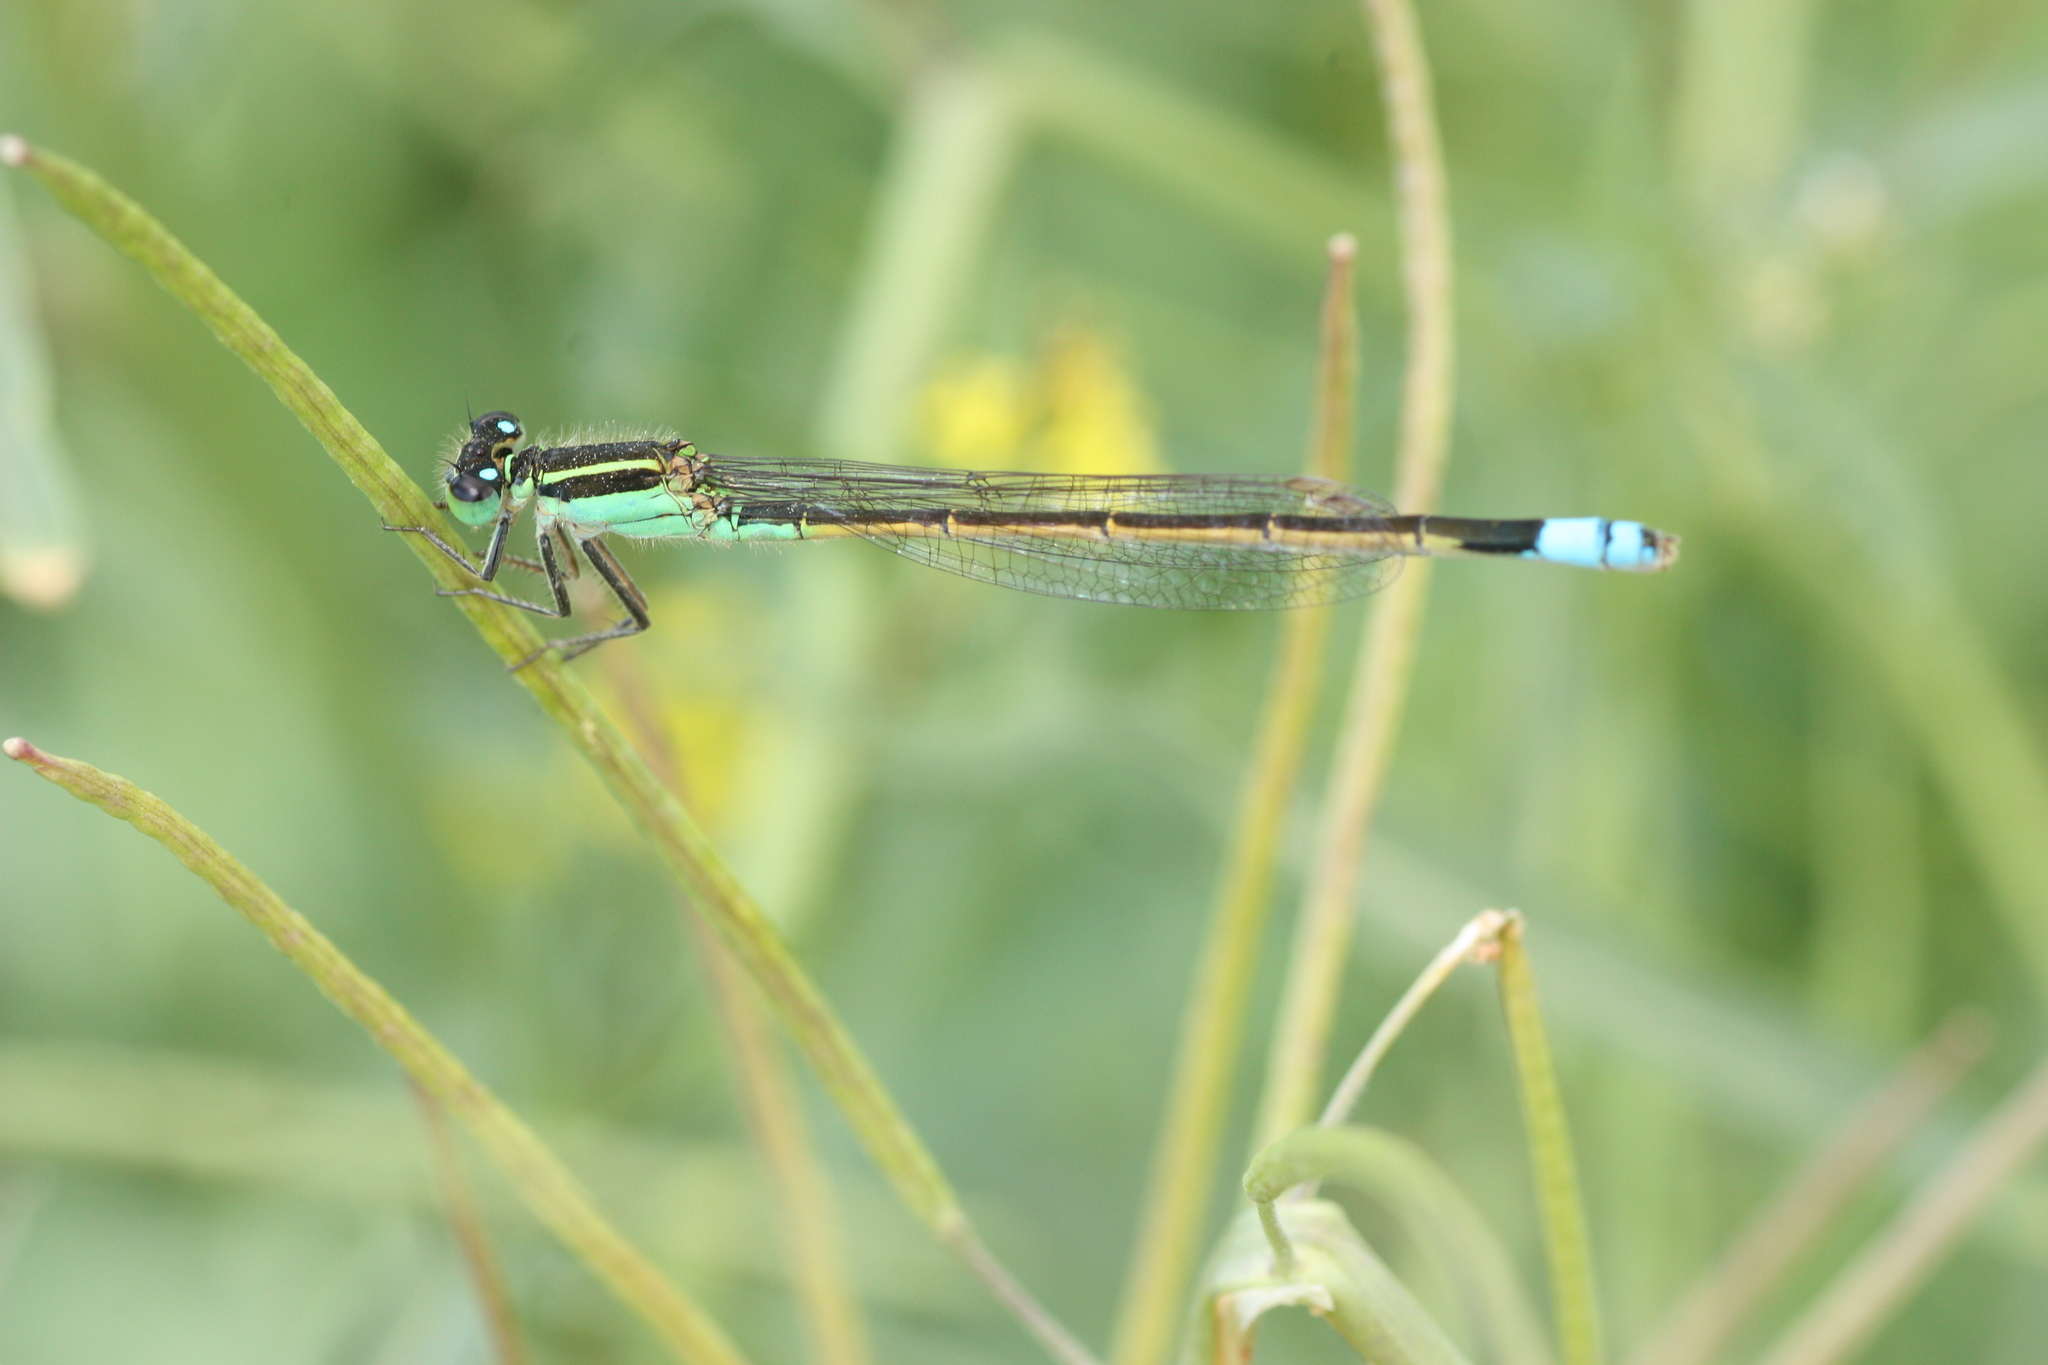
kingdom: Animalia
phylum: Arthropoda
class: Insecta
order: Odonata
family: Coenagrionidae
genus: Ischnura
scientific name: Ischnura ramburii
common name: Rambur's forktail
